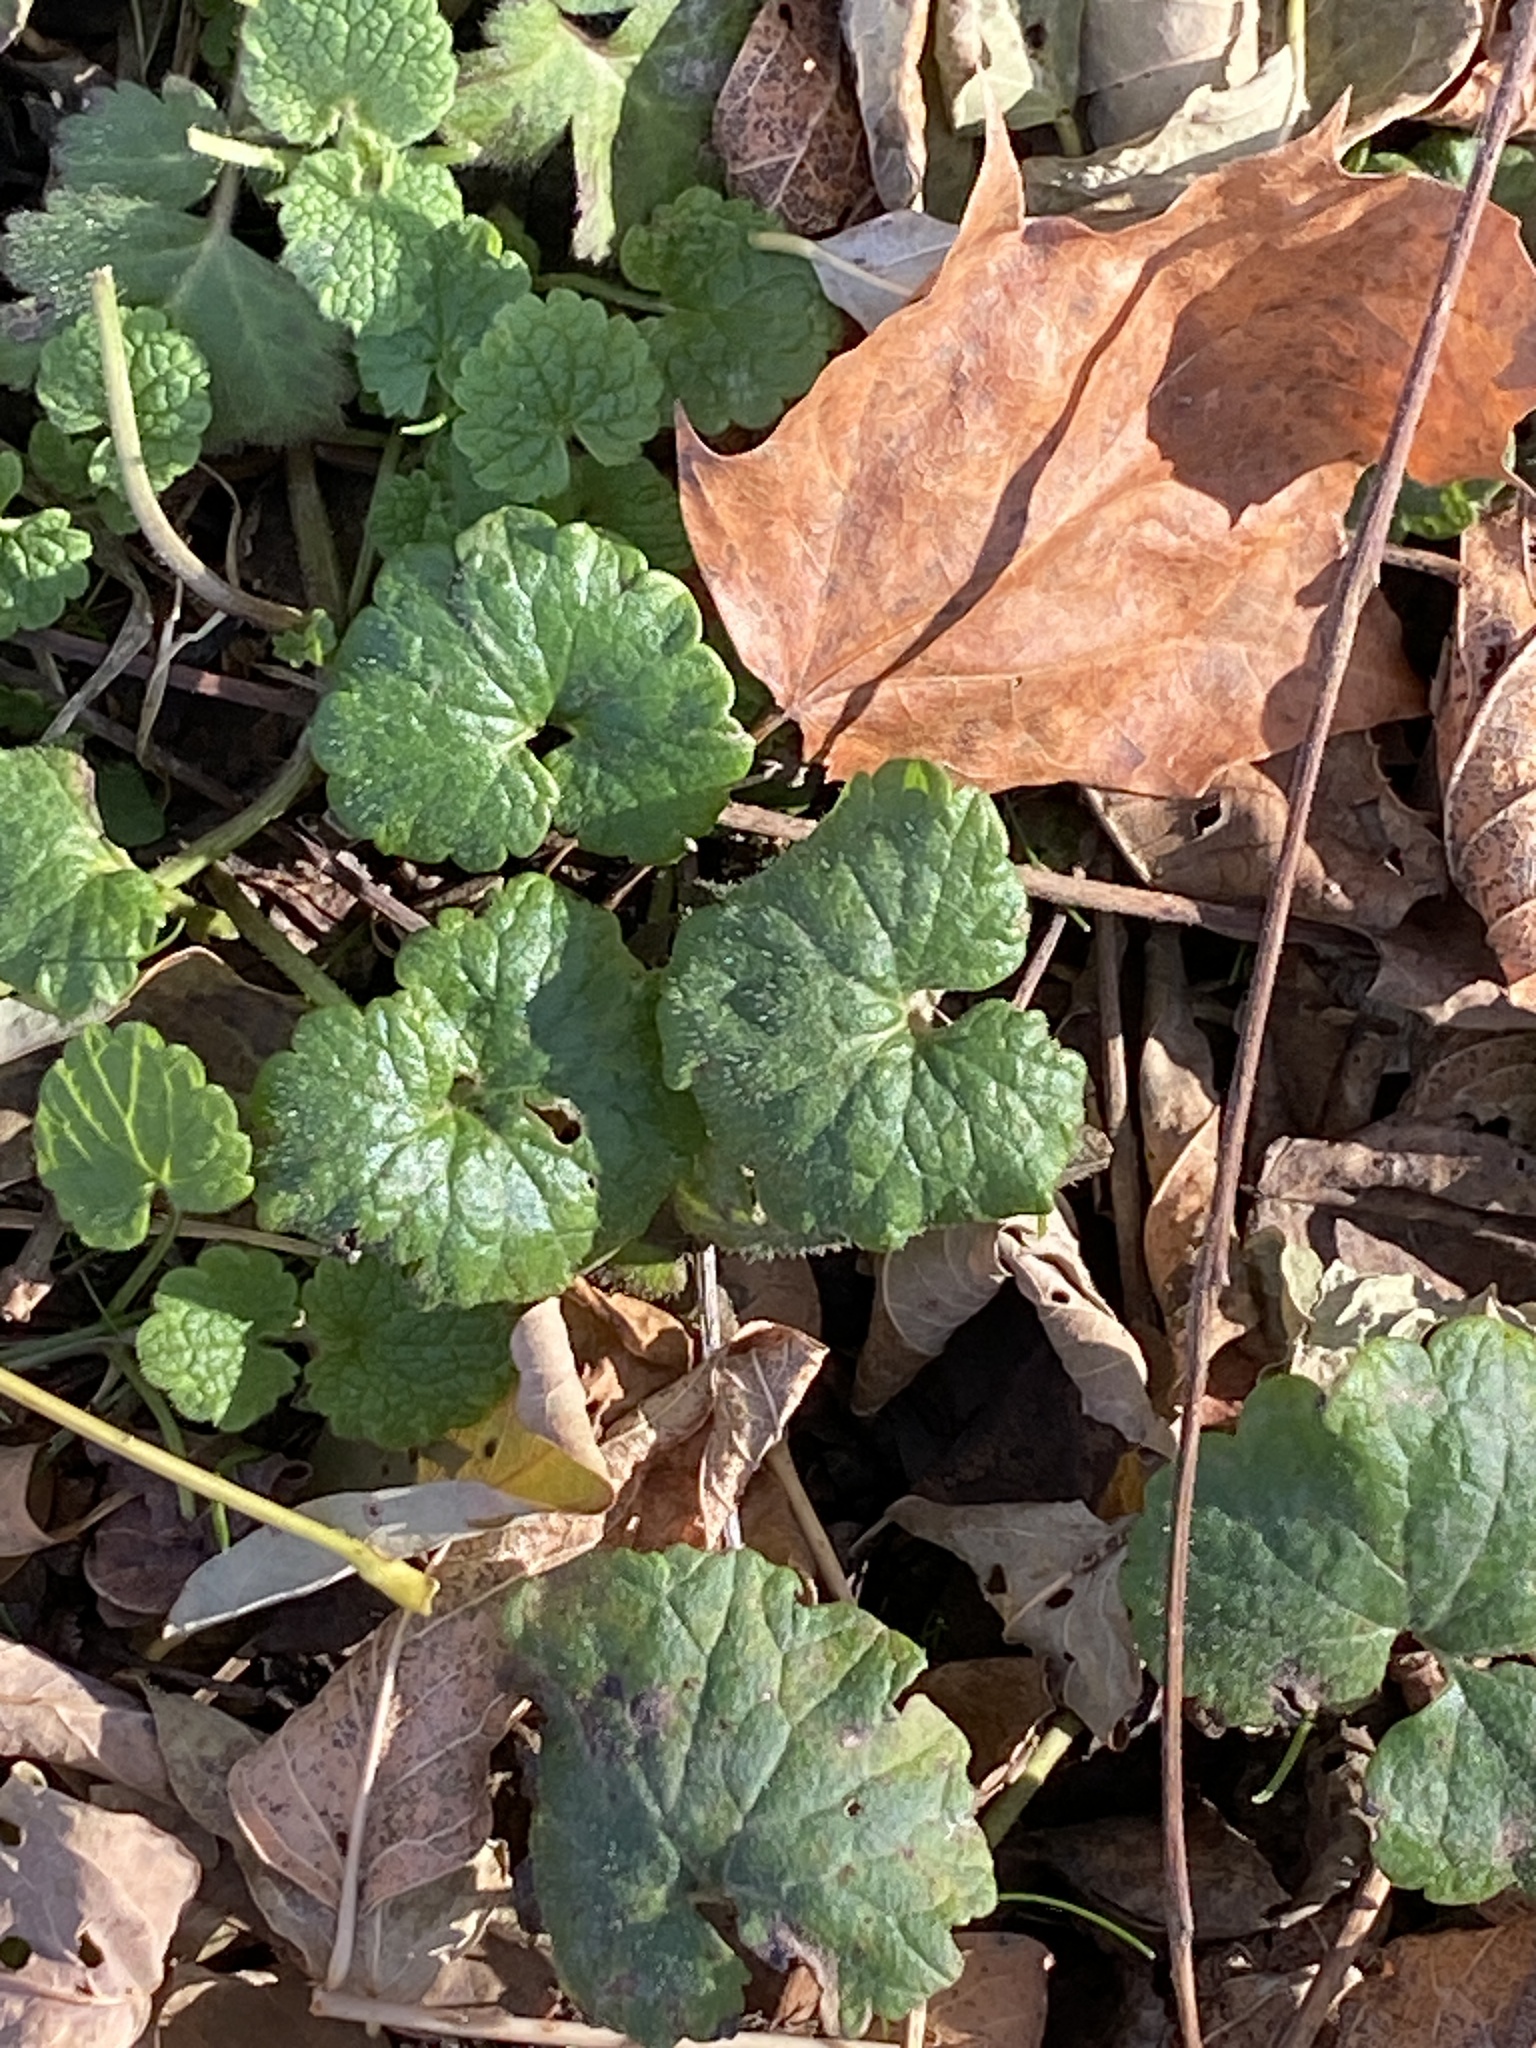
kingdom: Plantae
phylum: Tracheophyta
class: Magnoliopsida
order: Lamiales
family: Lamiaceae
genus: Glechoma
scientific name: Glechoma hederacea
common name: Ground ivy
